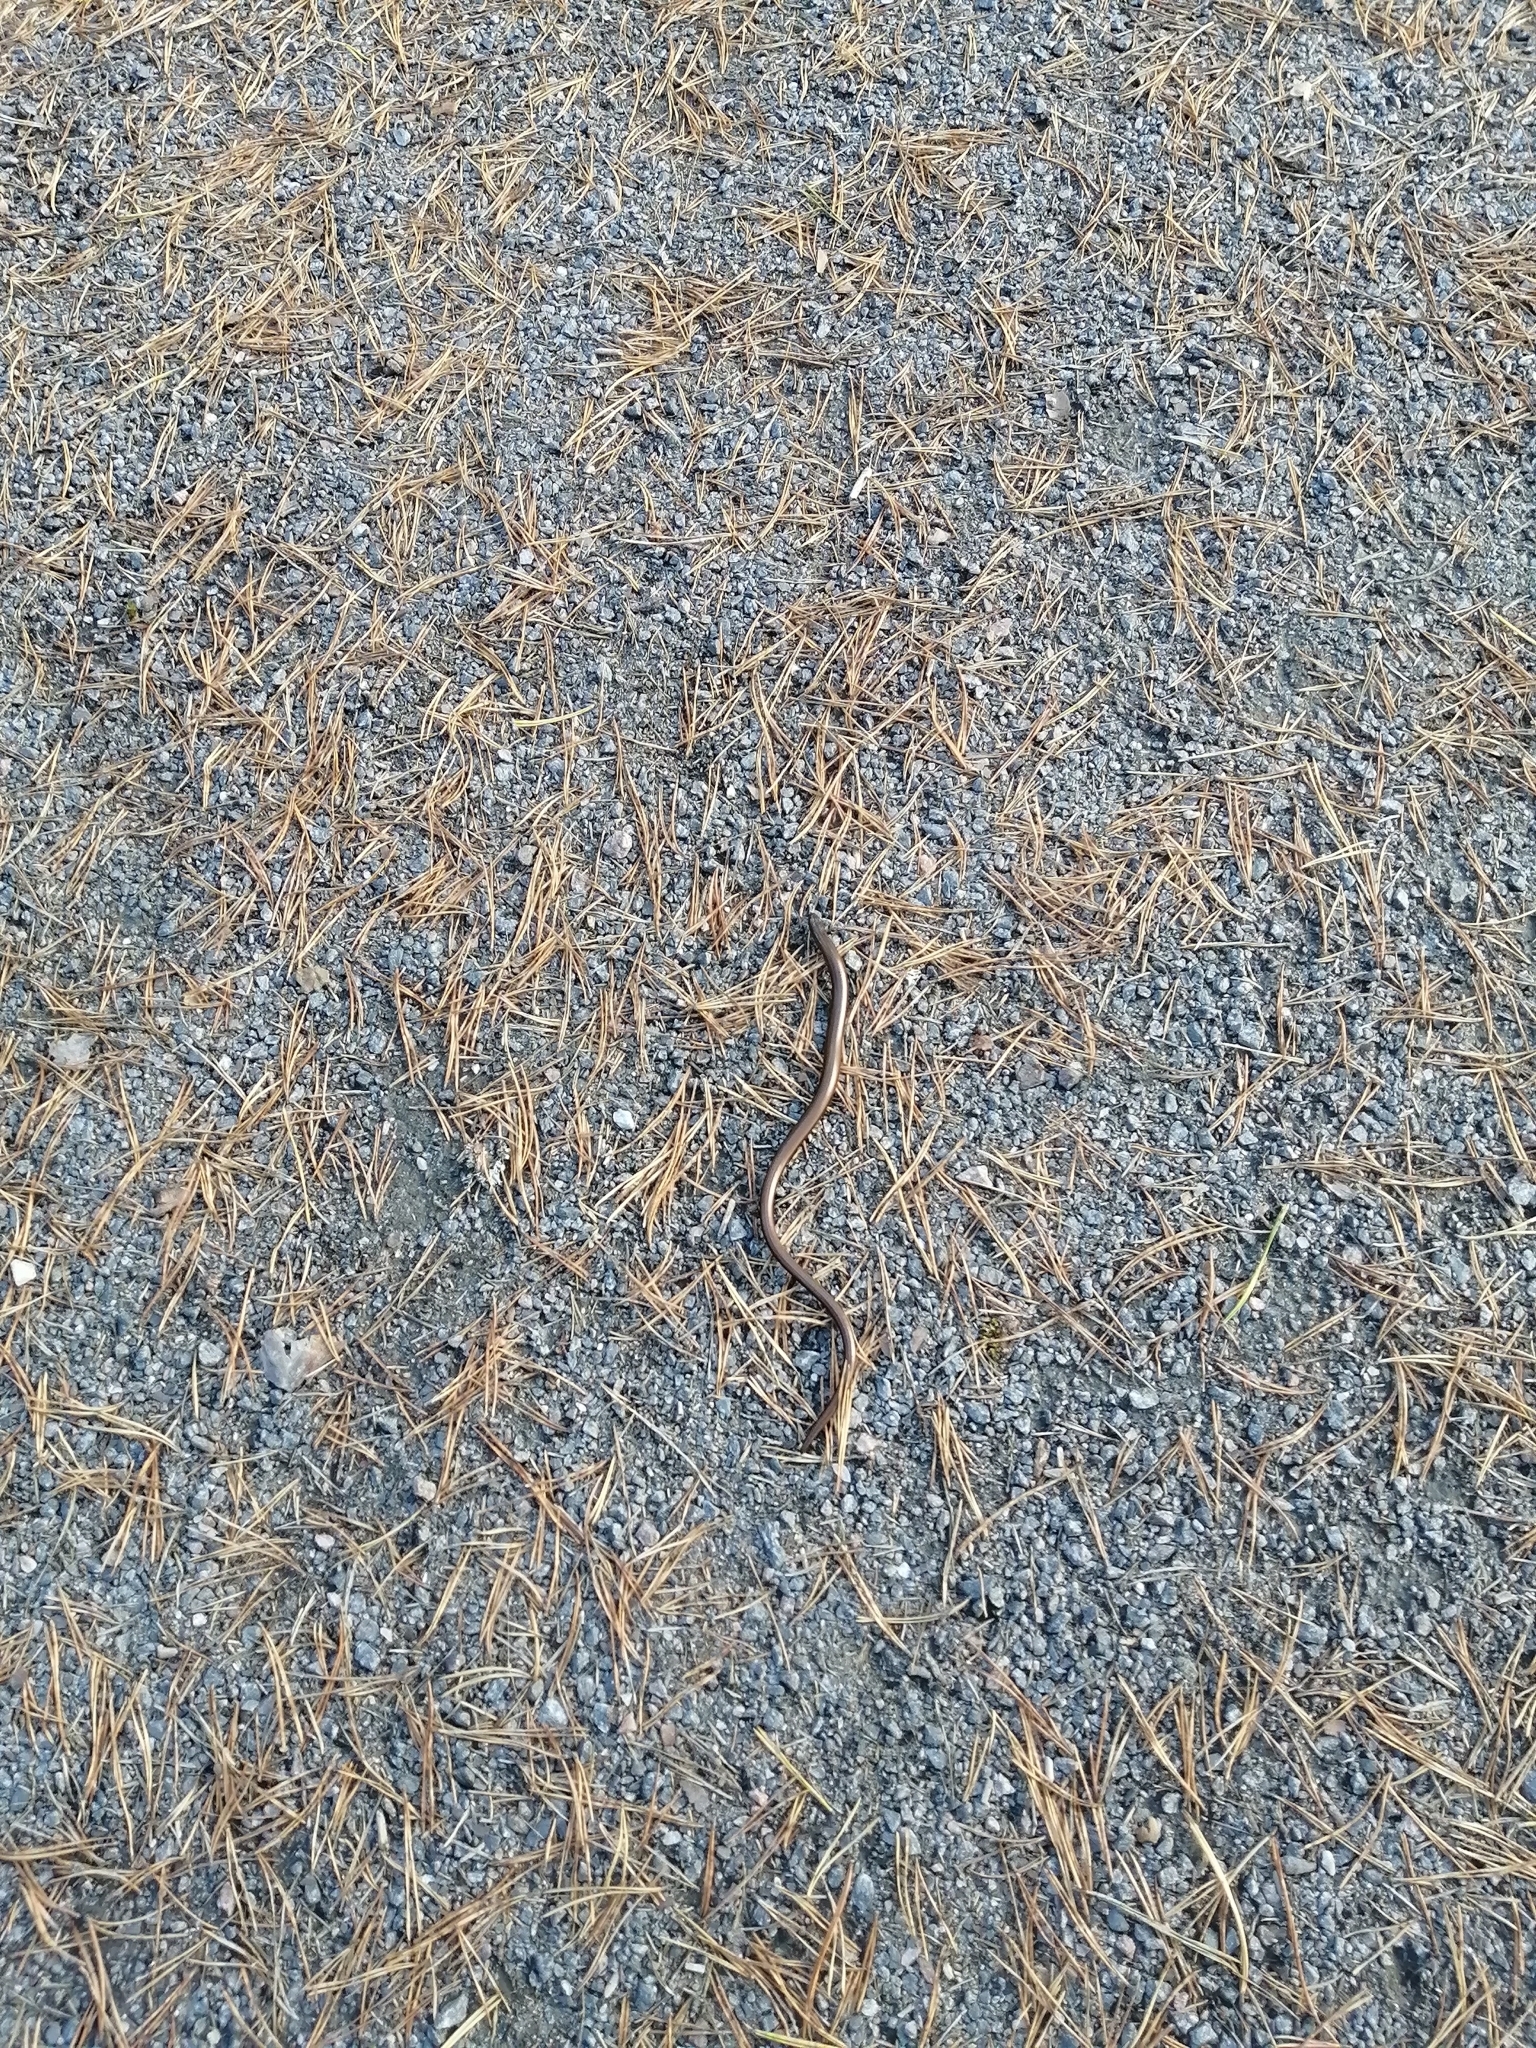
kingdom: Animalia
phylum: Chordata
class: Squamata
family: Anguidae
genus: Anguis
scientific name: Anguis colchica
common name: Slow worm
